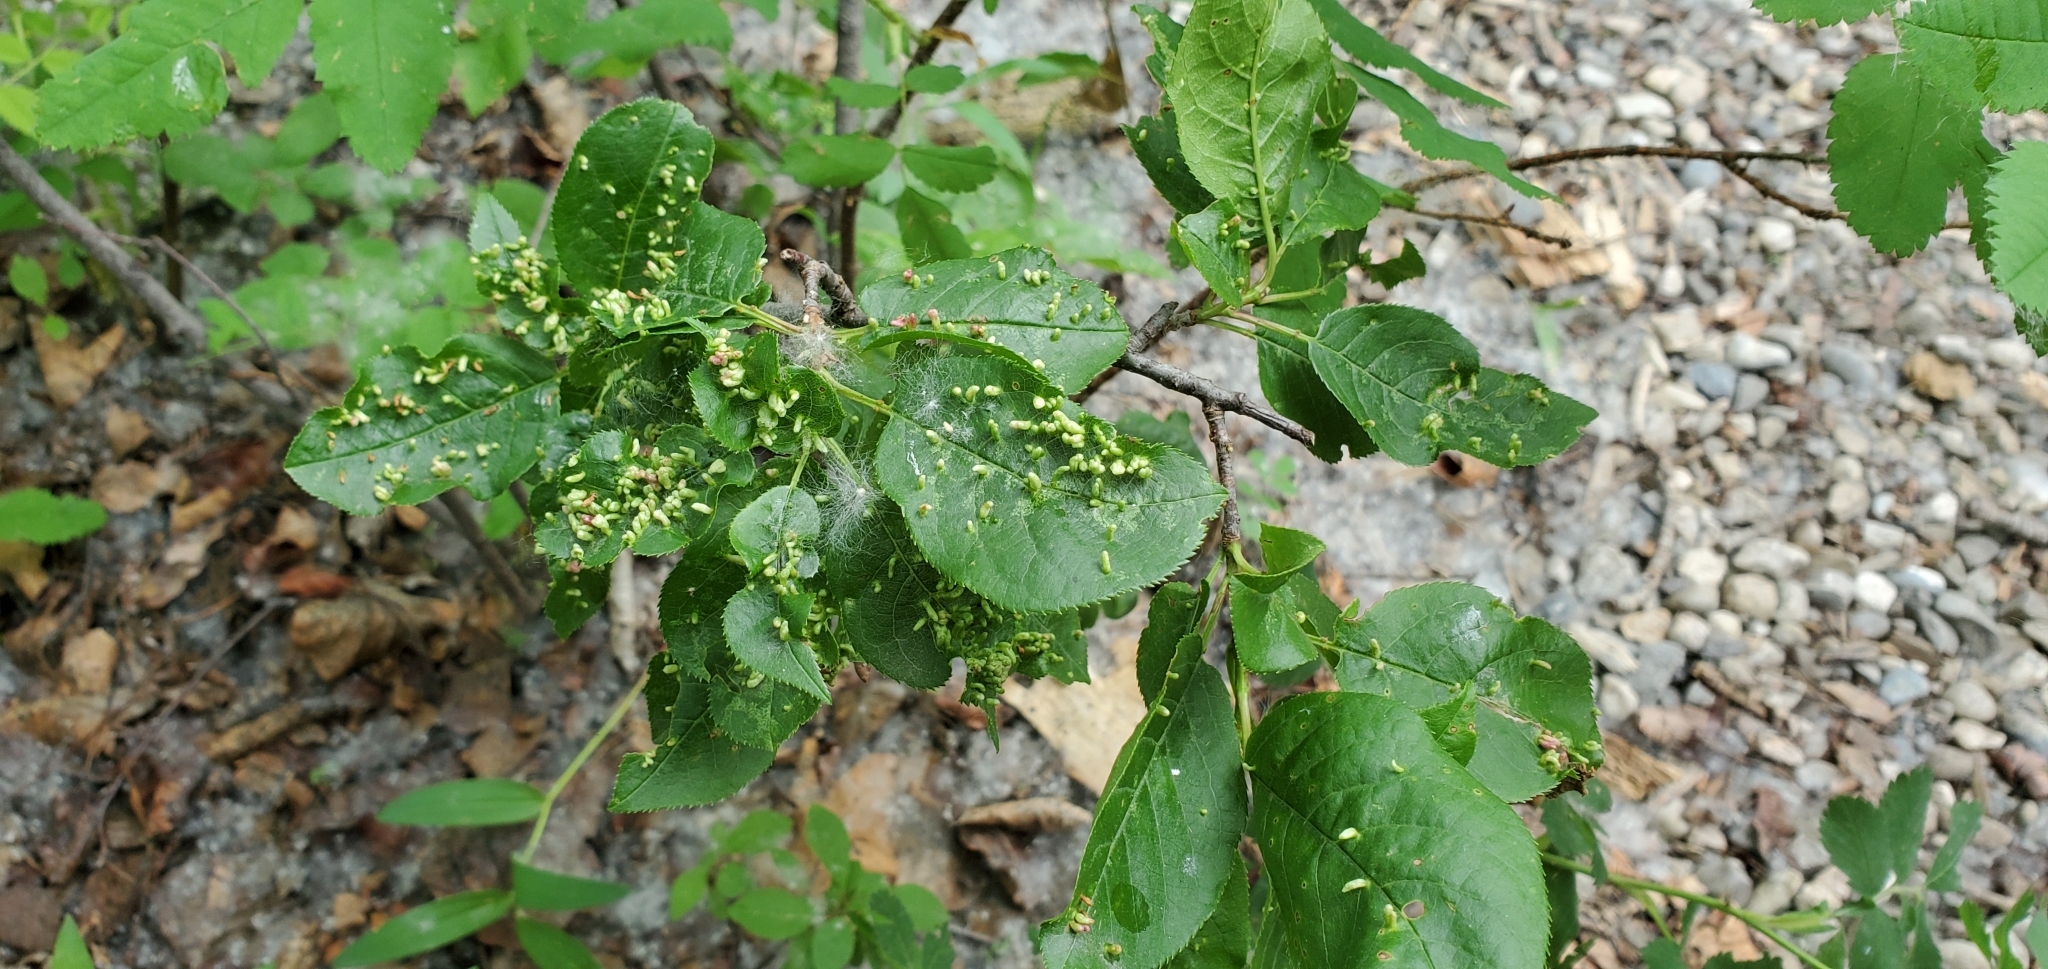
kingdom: Animalia
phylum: Arthropoda
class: Arachnida
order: Trombidiformes
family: Eriophyidae
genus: Eriophyes
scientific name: Eriophyes emarginatae
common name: Plum leaf gall mite
